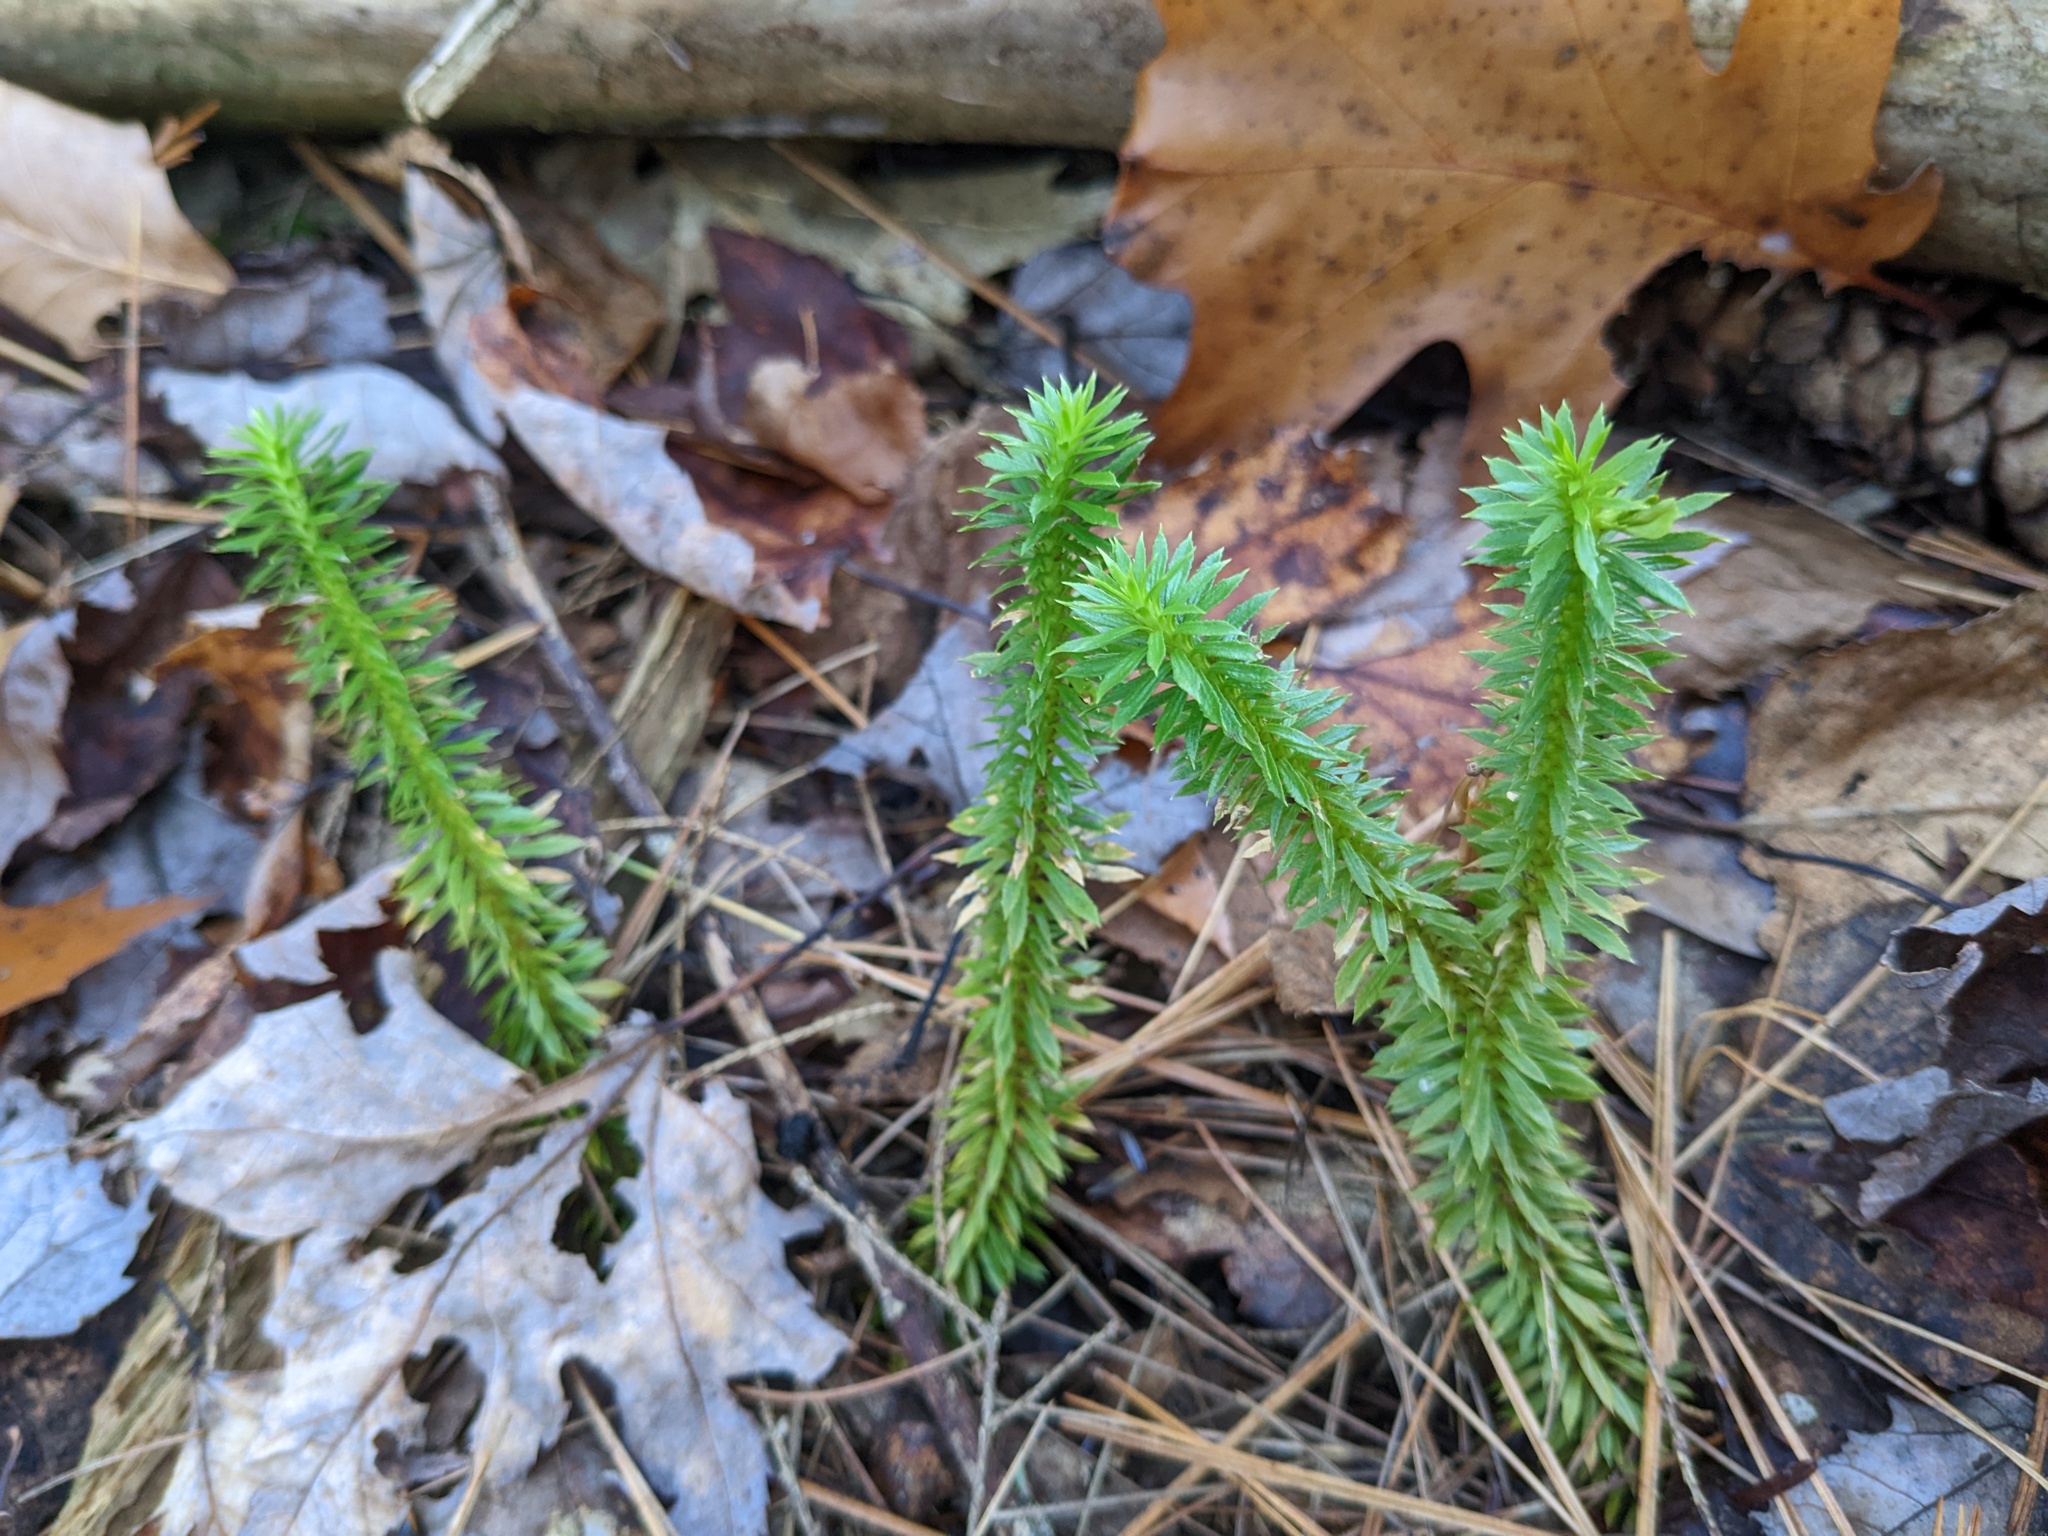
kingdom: Plantae
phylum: Tracheophyta
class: Lycopodiopsida
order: Lycopodiales
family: Lycopodiaceae
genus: Huperzia
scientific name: Huperzia lucidula
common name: Shining clubmoss
